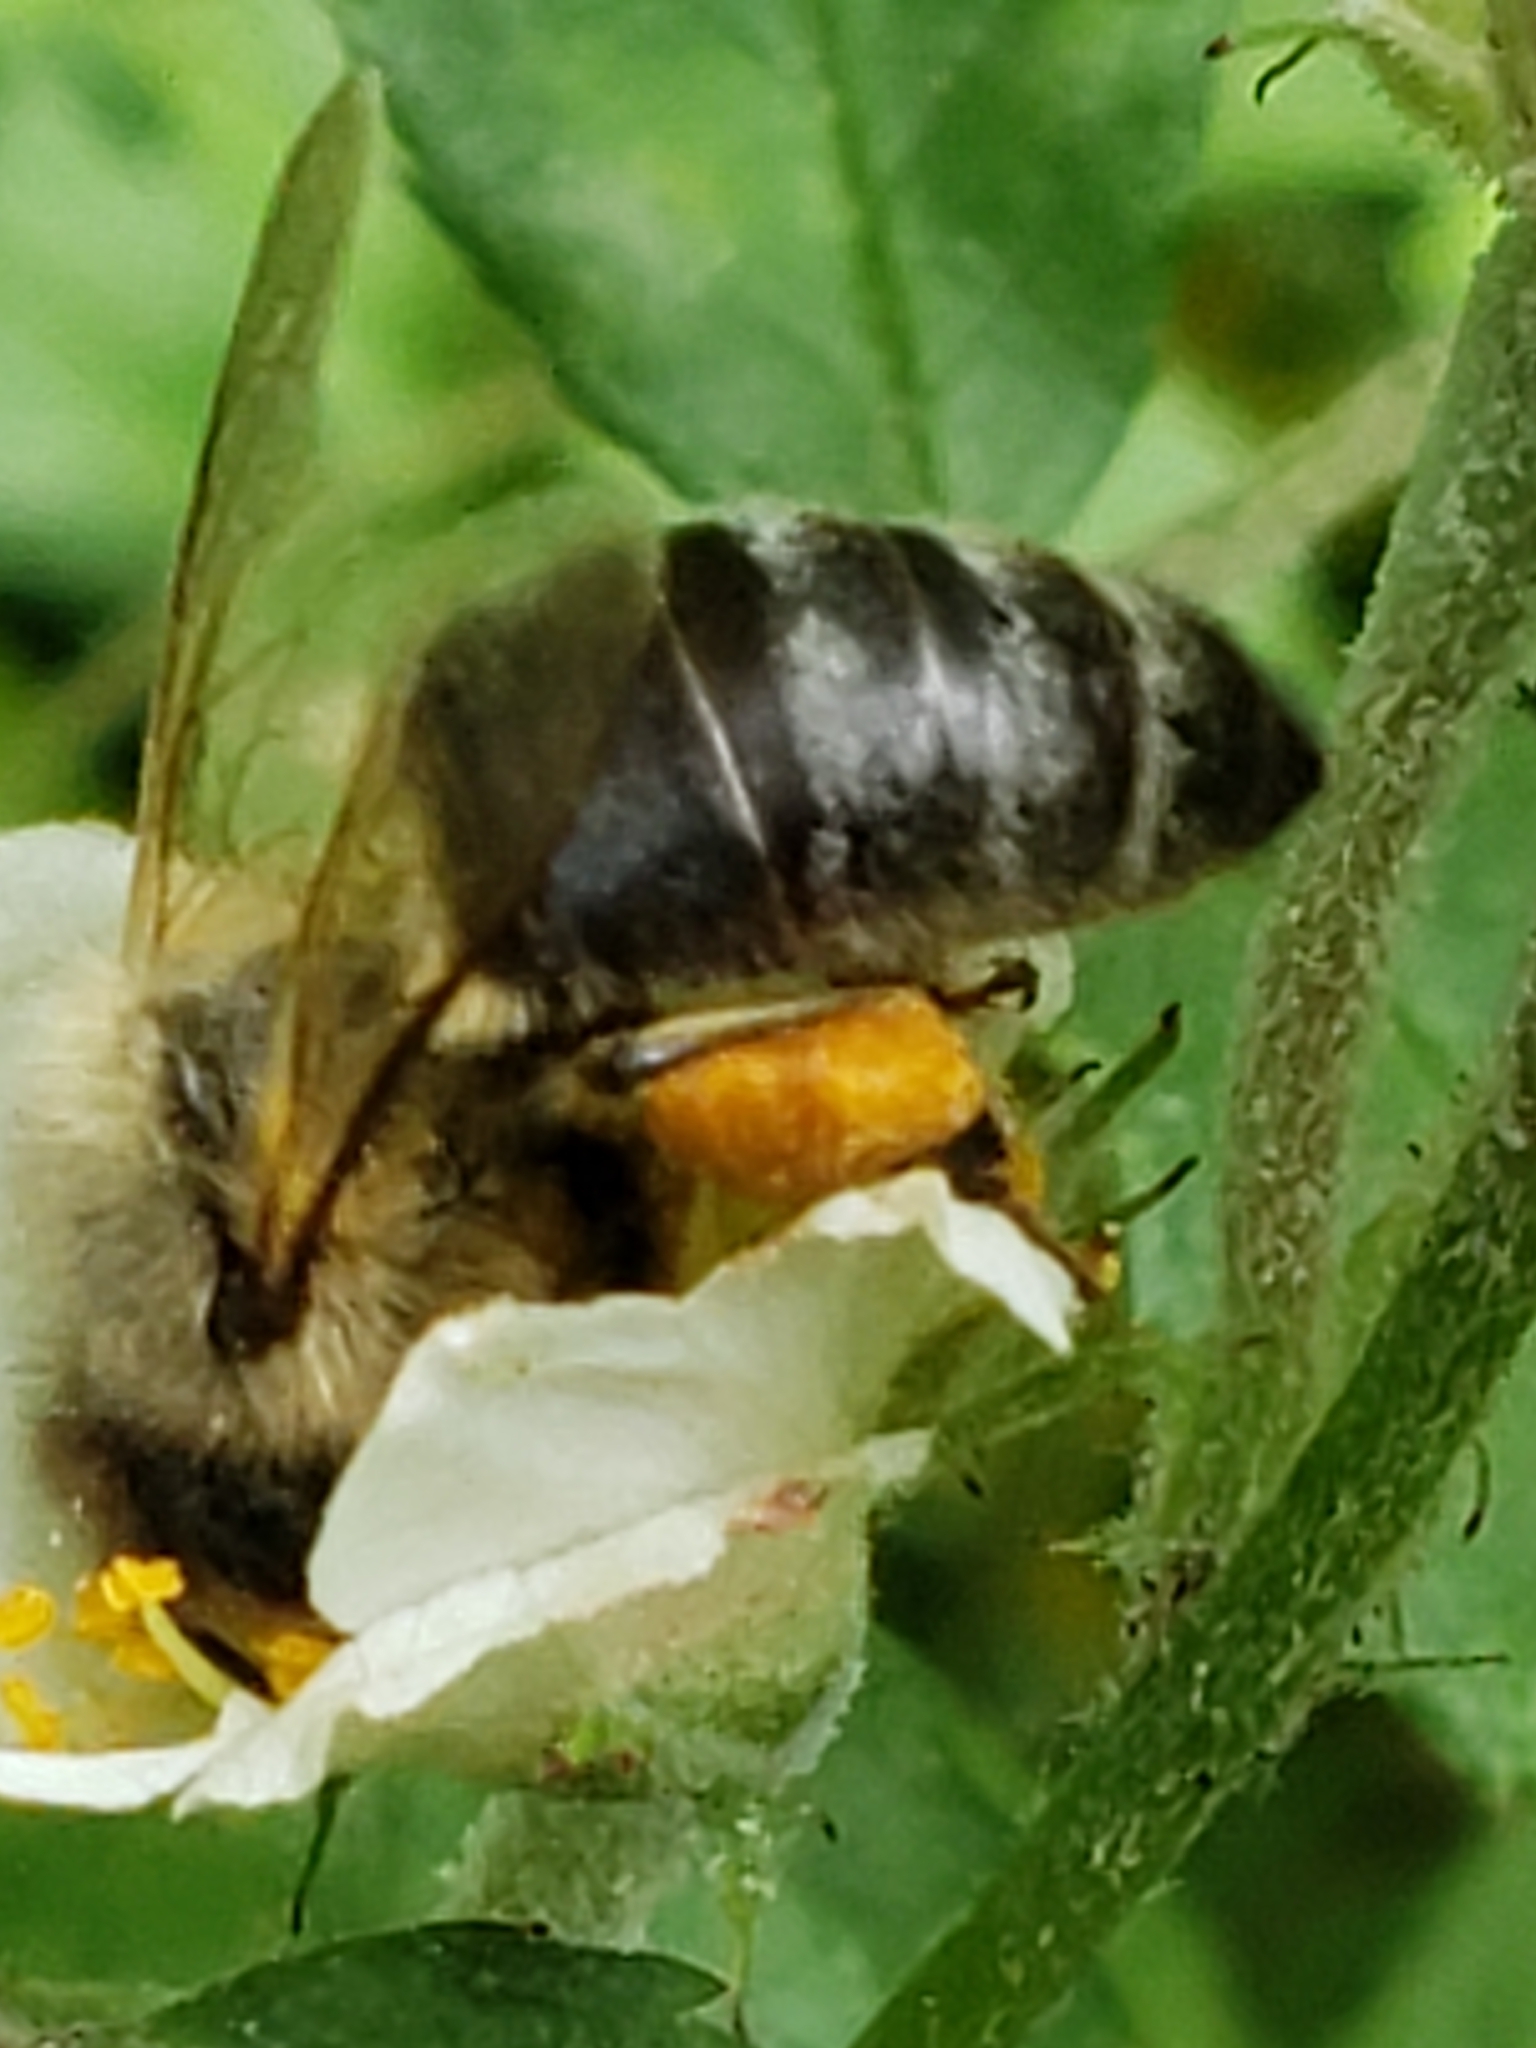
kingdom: Animalia
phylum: Arthropoda
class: Insecta
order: Hymenoptera
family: Apidae
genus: Apis
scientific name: Apis mellifera
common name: Honey bee
